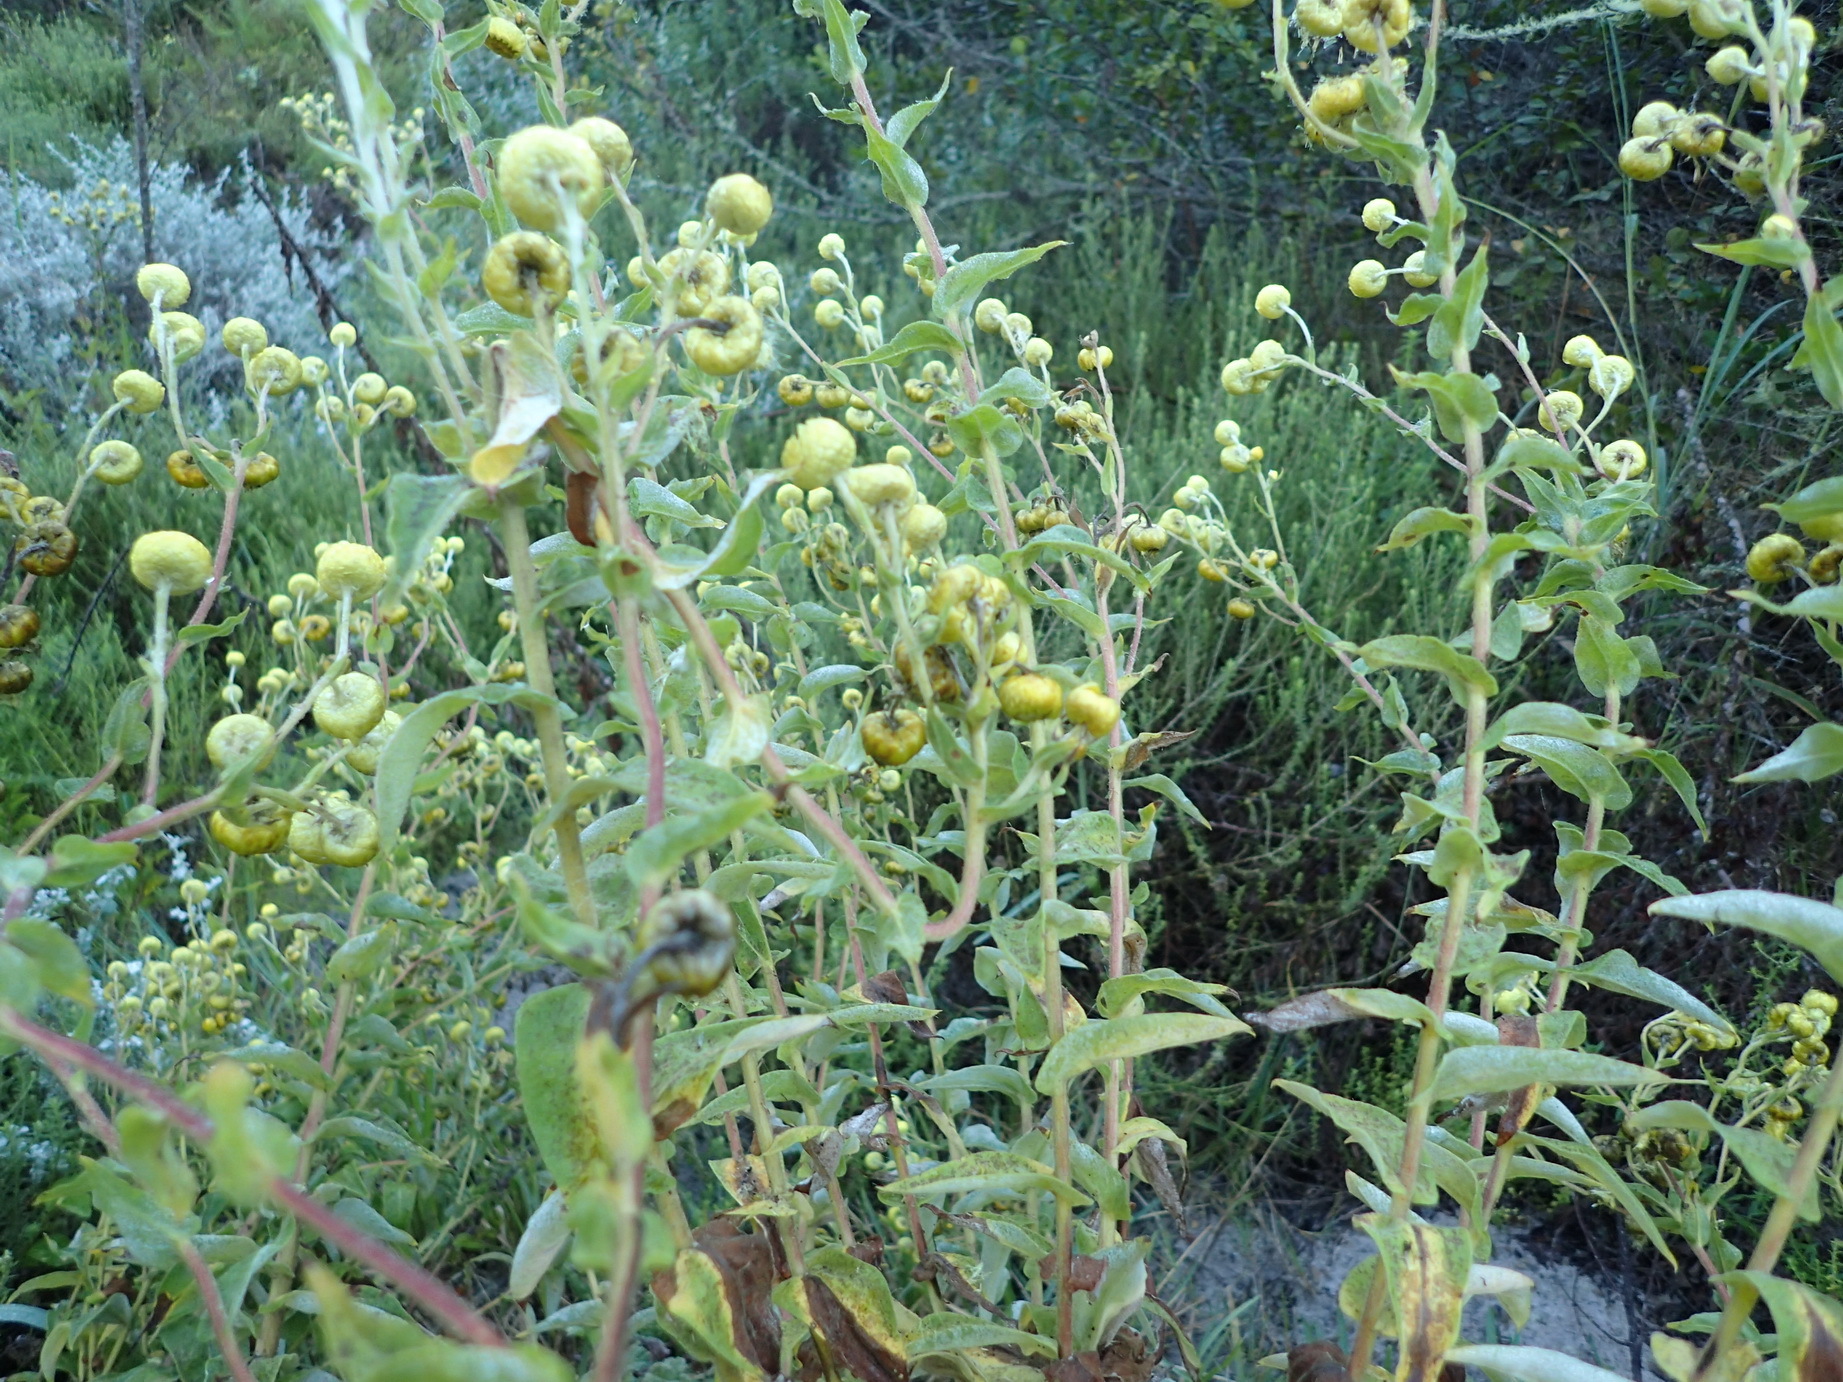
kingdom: Plantae
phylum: Tracheophyta
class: Magnoliopsida
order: Asterales
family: Asteraceae
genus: Helichrysum
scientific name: Helichrysum foetidum
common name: Stinking everlasting
